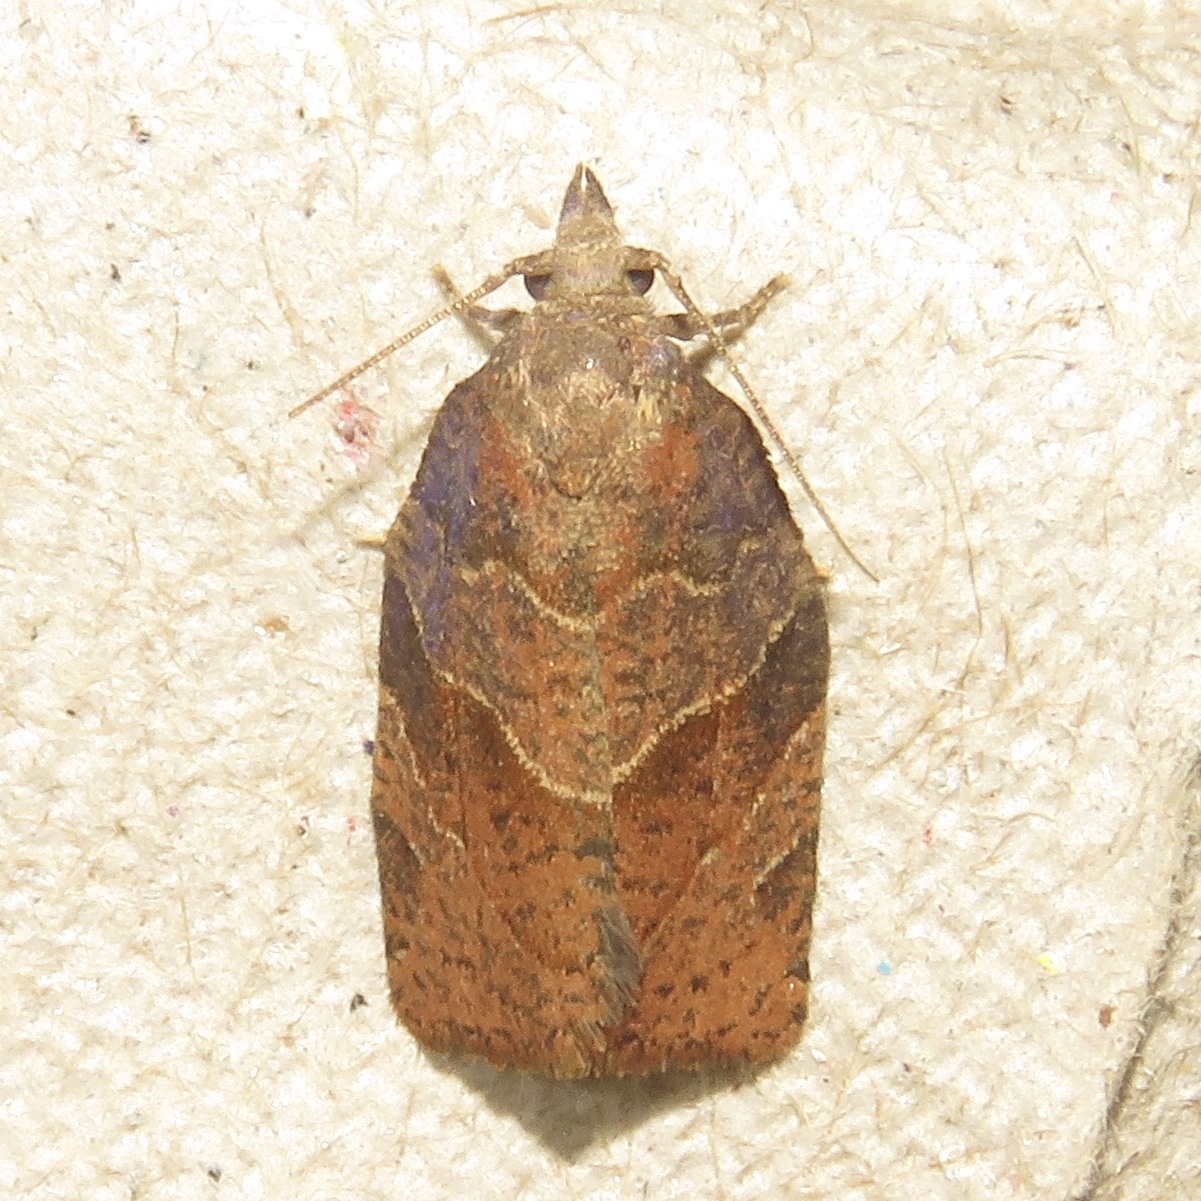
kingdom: Animalia
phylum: Arthropoda
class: Insecta
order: Lepidoptera
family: Tortricidae
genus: Pandemis
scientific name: Pandemis limitata
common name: Three-lined leafroller moth
